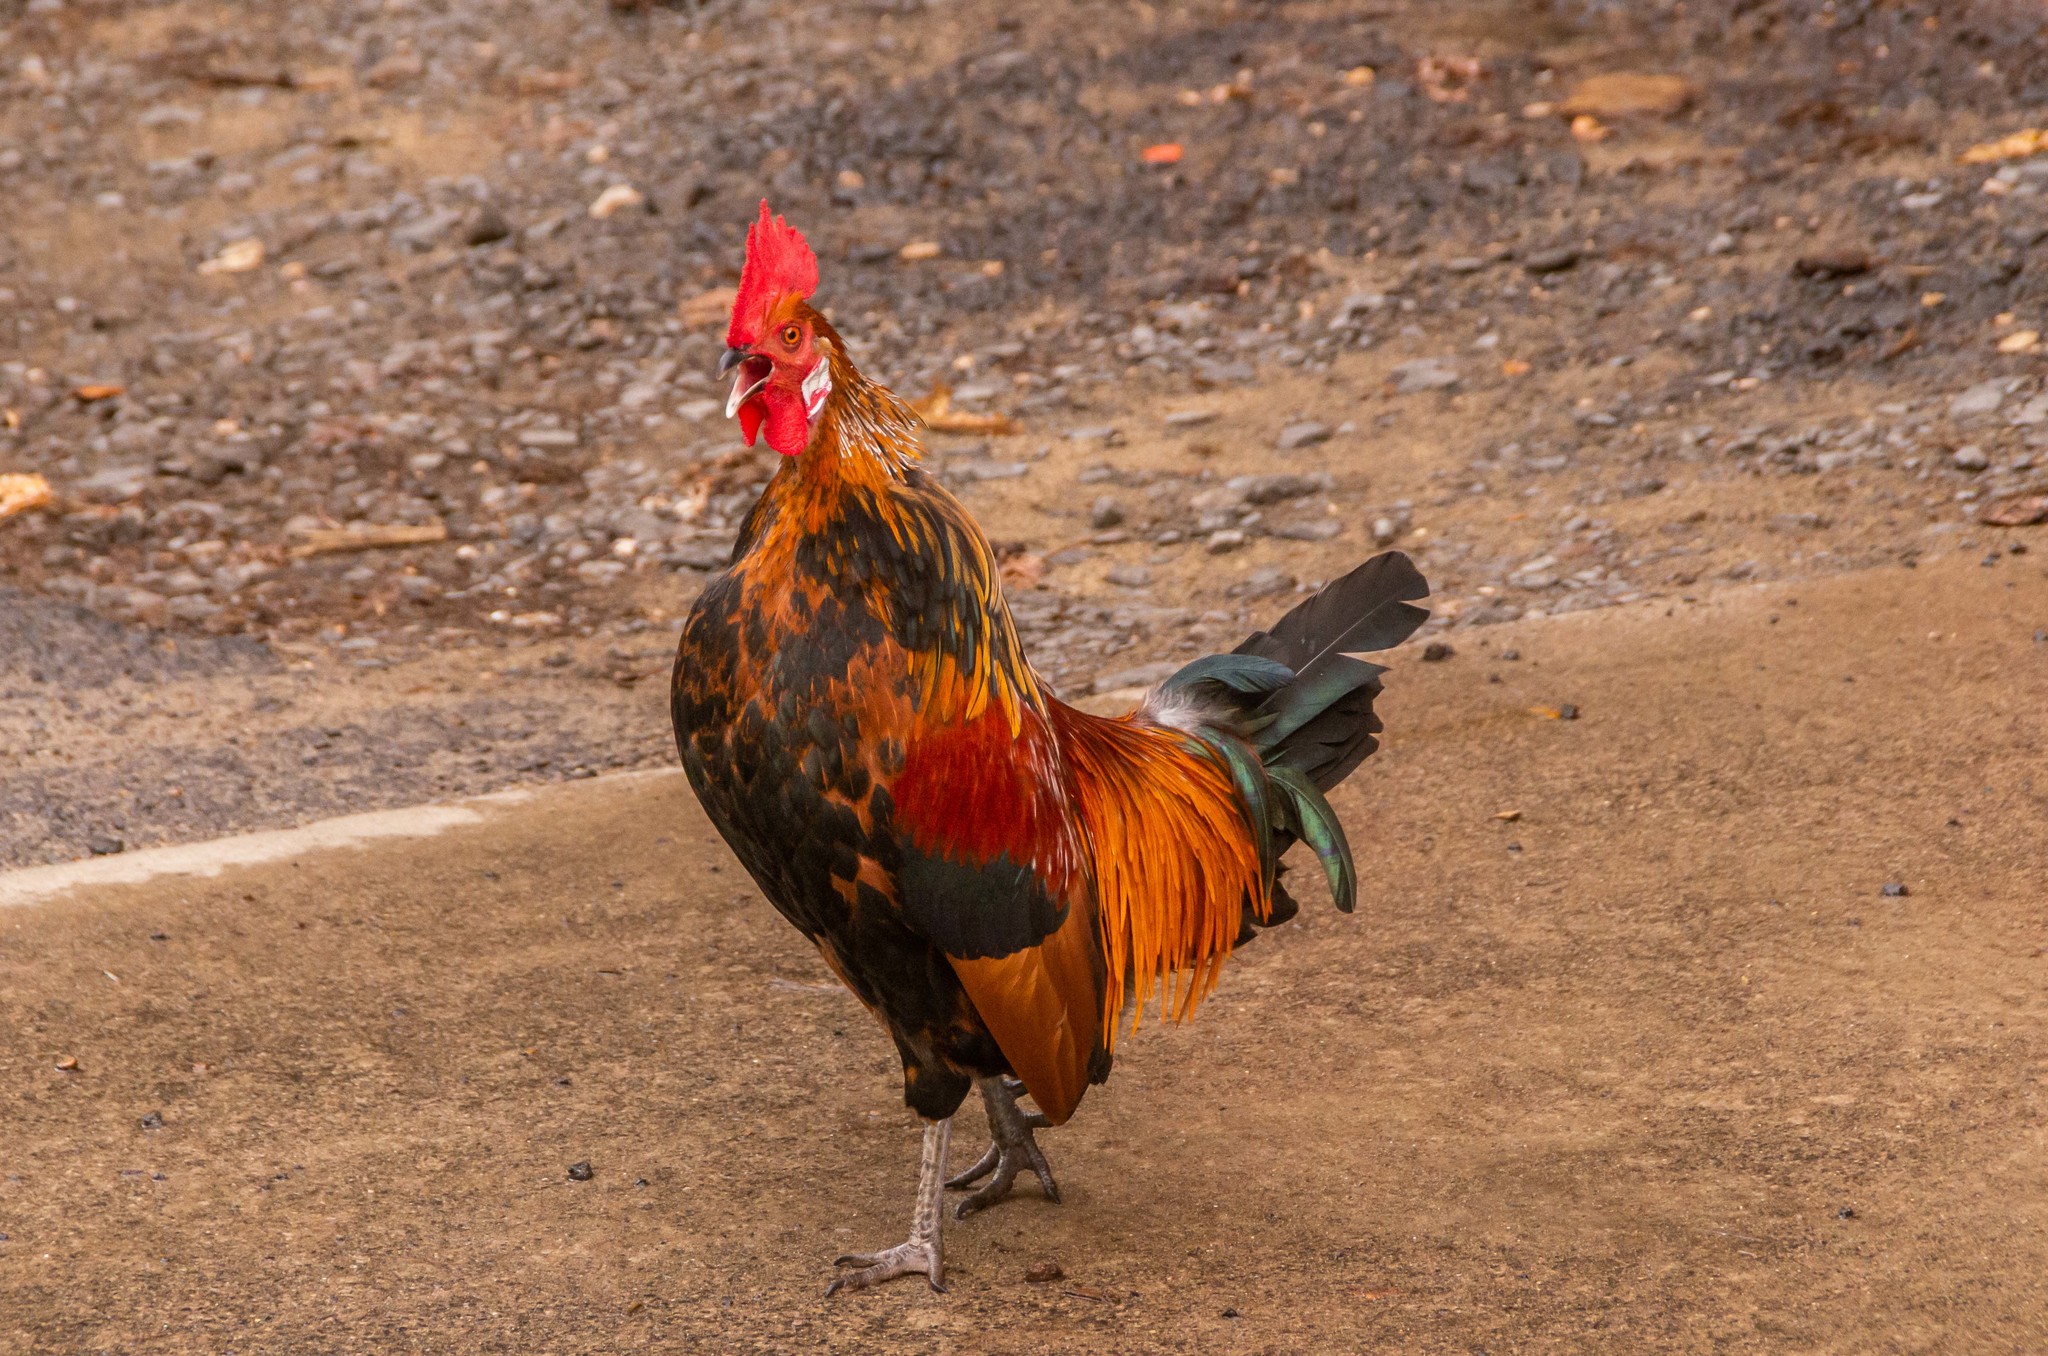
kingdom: Animalia
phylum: Chordata
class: Aves
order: Galliformes
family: Phasianidae
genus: Gallus
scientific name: Gallus gallus
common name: Red junglefowl
